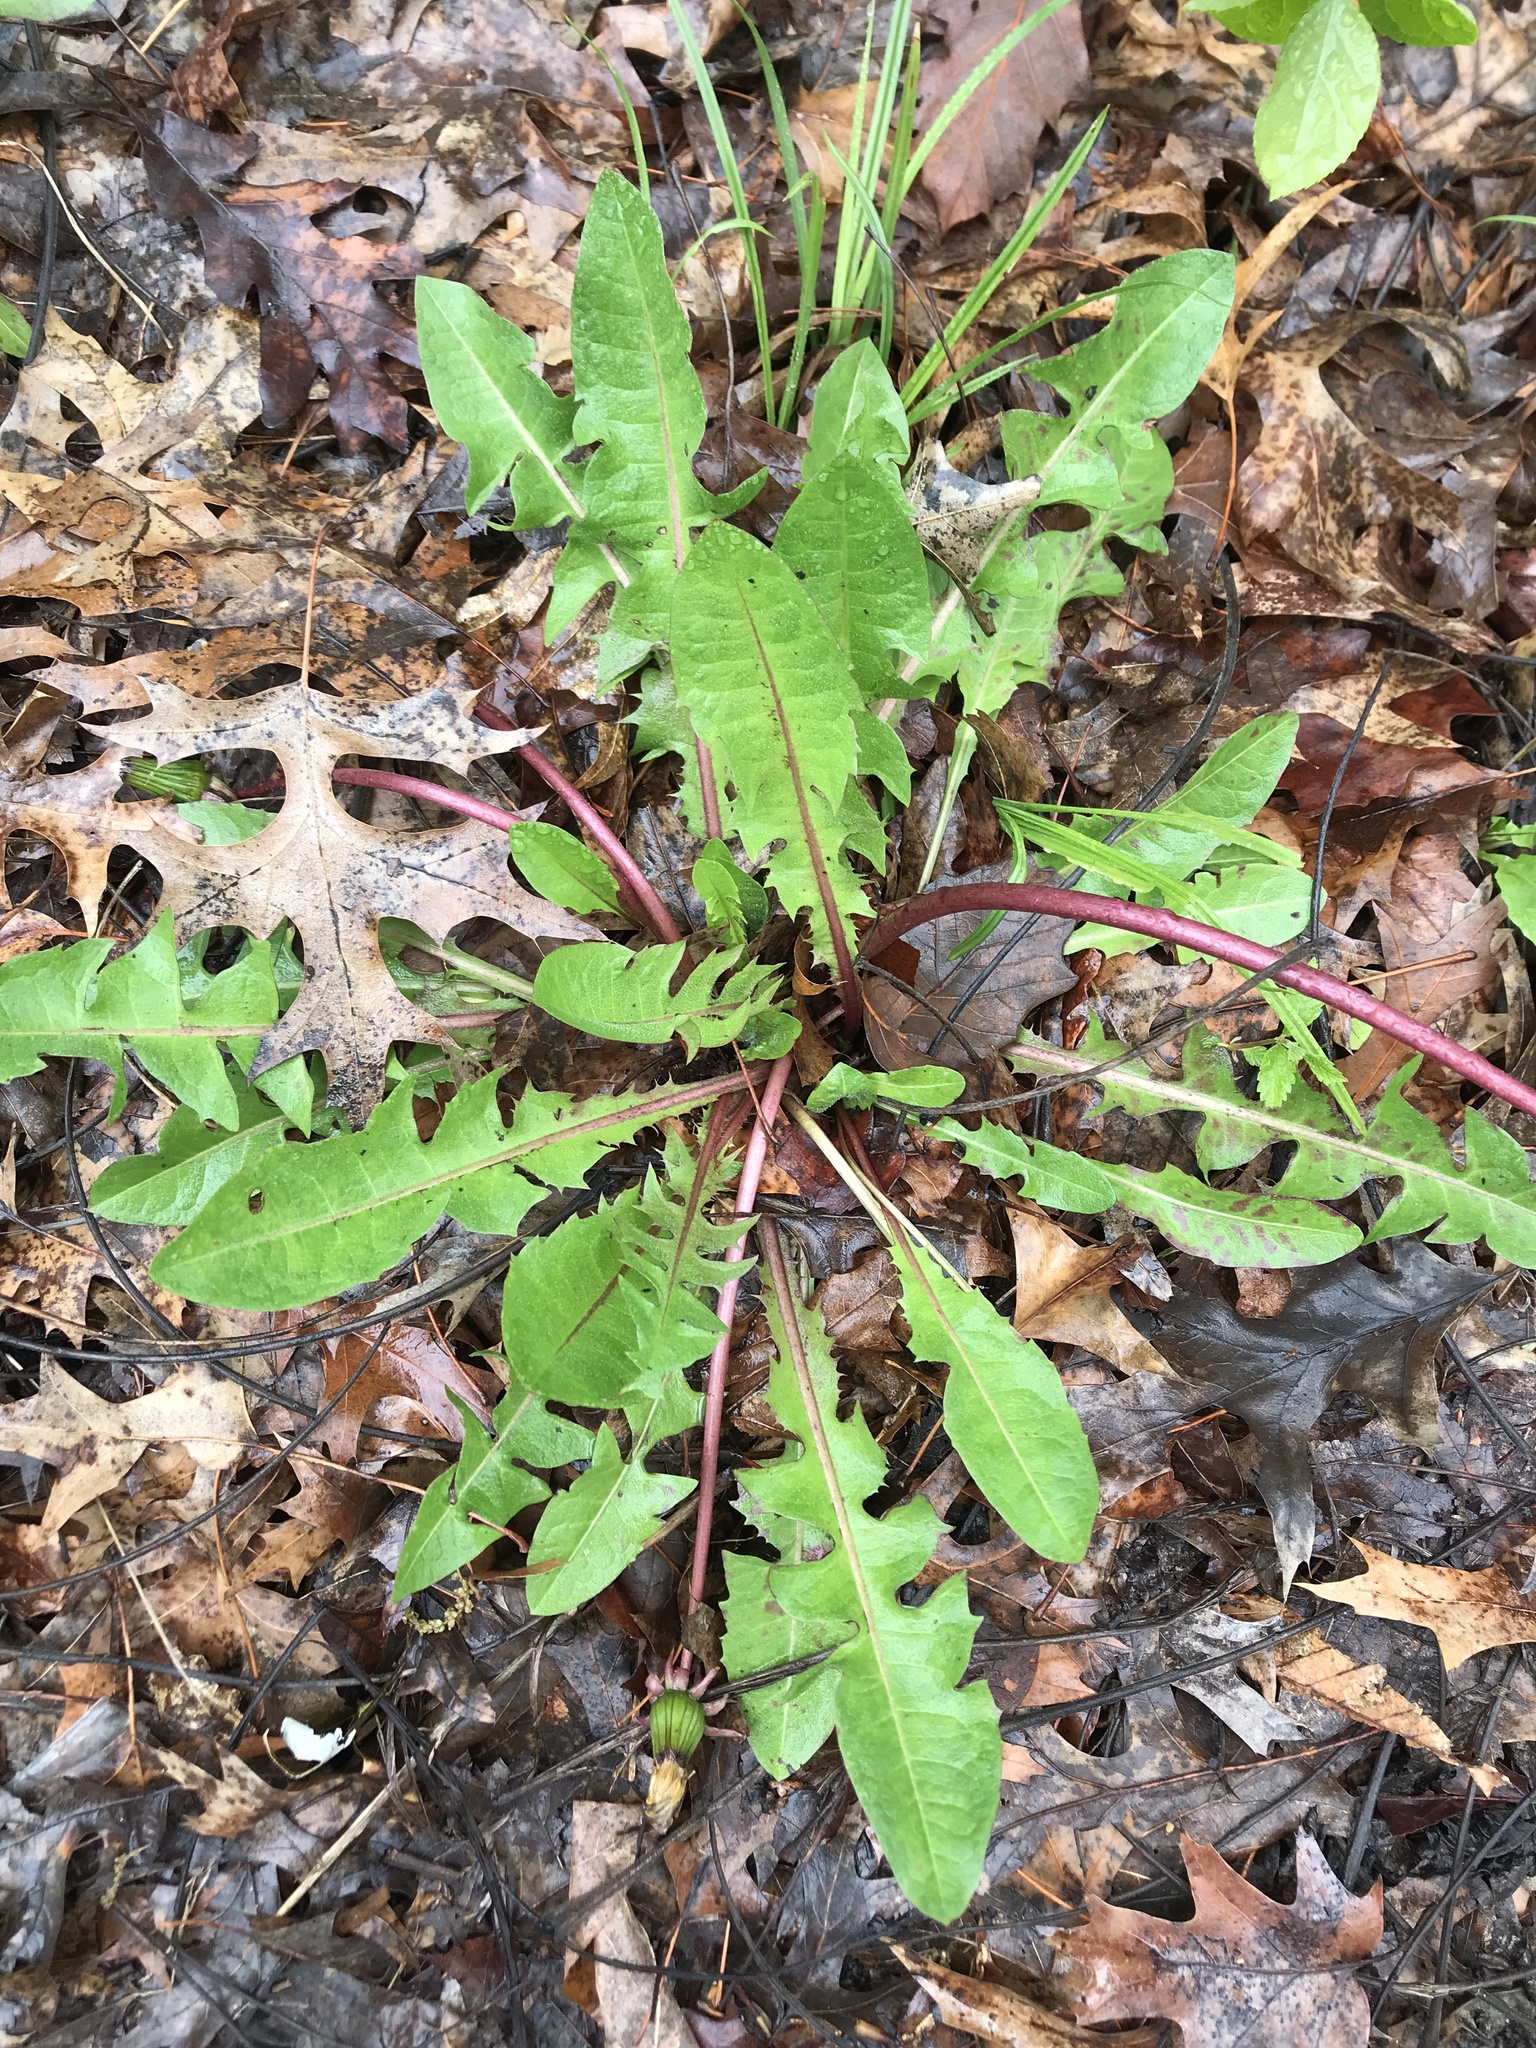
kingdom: Plantae
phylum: Tracheophyta
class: Magnoliopsida
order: Asterales
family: Asteraceae
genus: Taraxacum
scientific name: Taraxacum officinale
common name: Common dandelion
